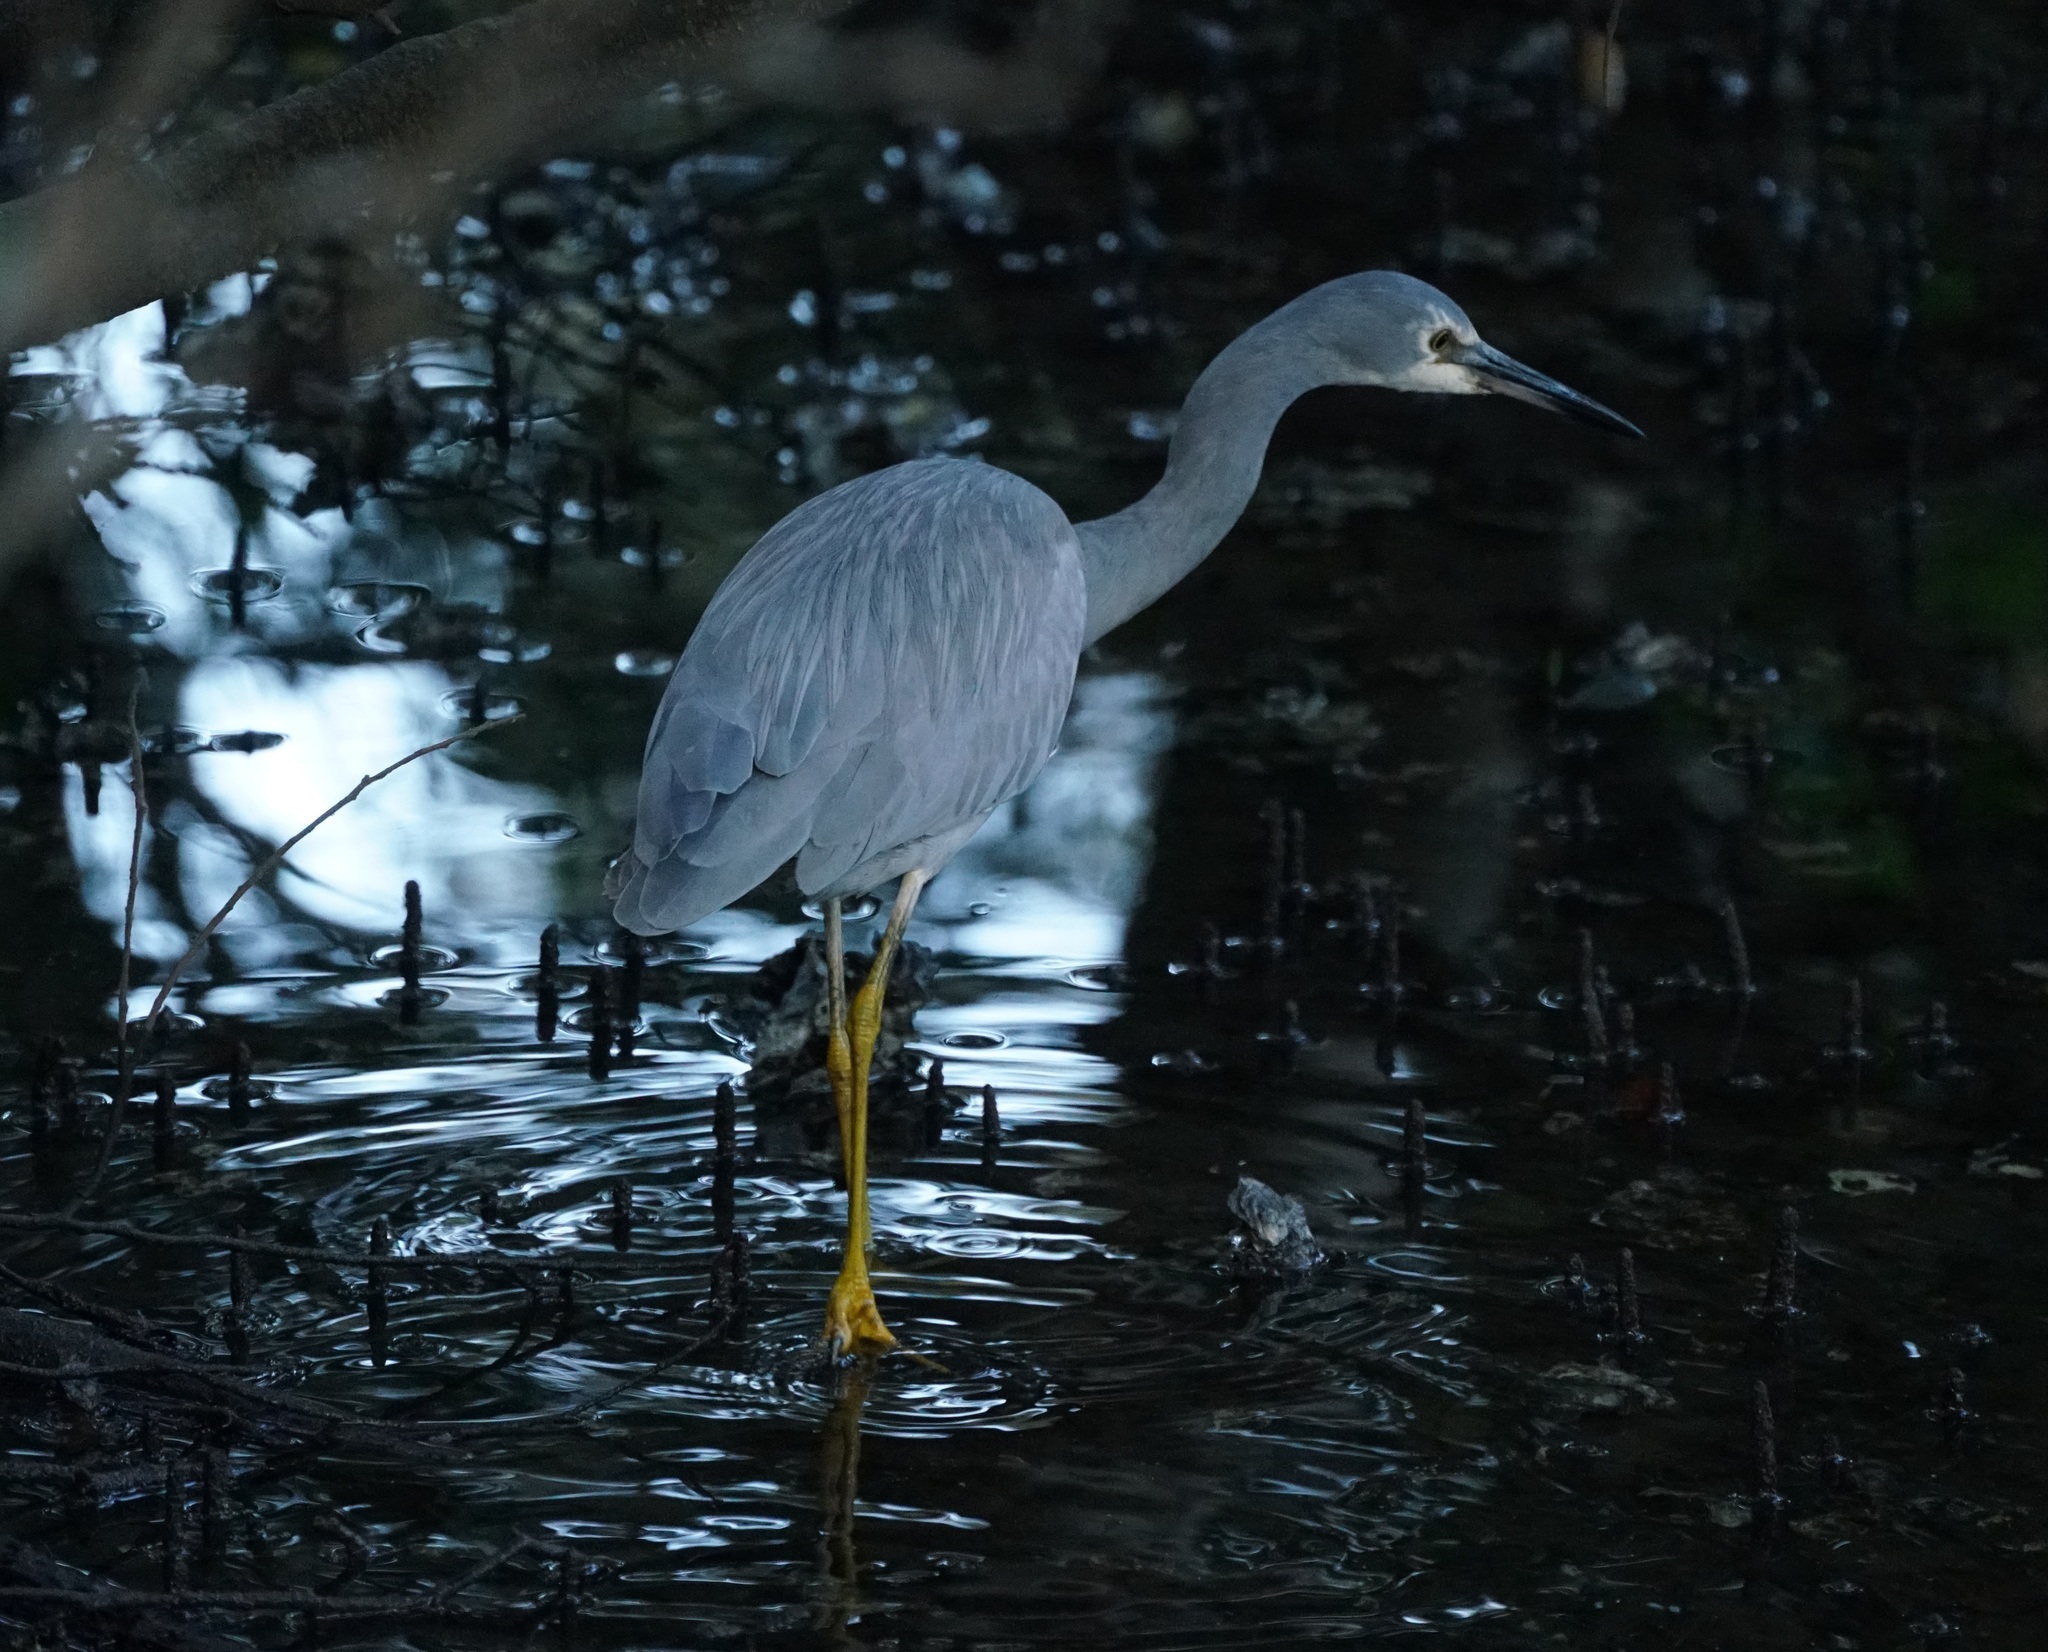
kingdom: Animalia
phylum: Chordata
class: Aves
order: Pelecaniformes
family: Ardeidae
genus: Egretta
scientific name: Egretta novaehollandiae
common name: White-faced heron
